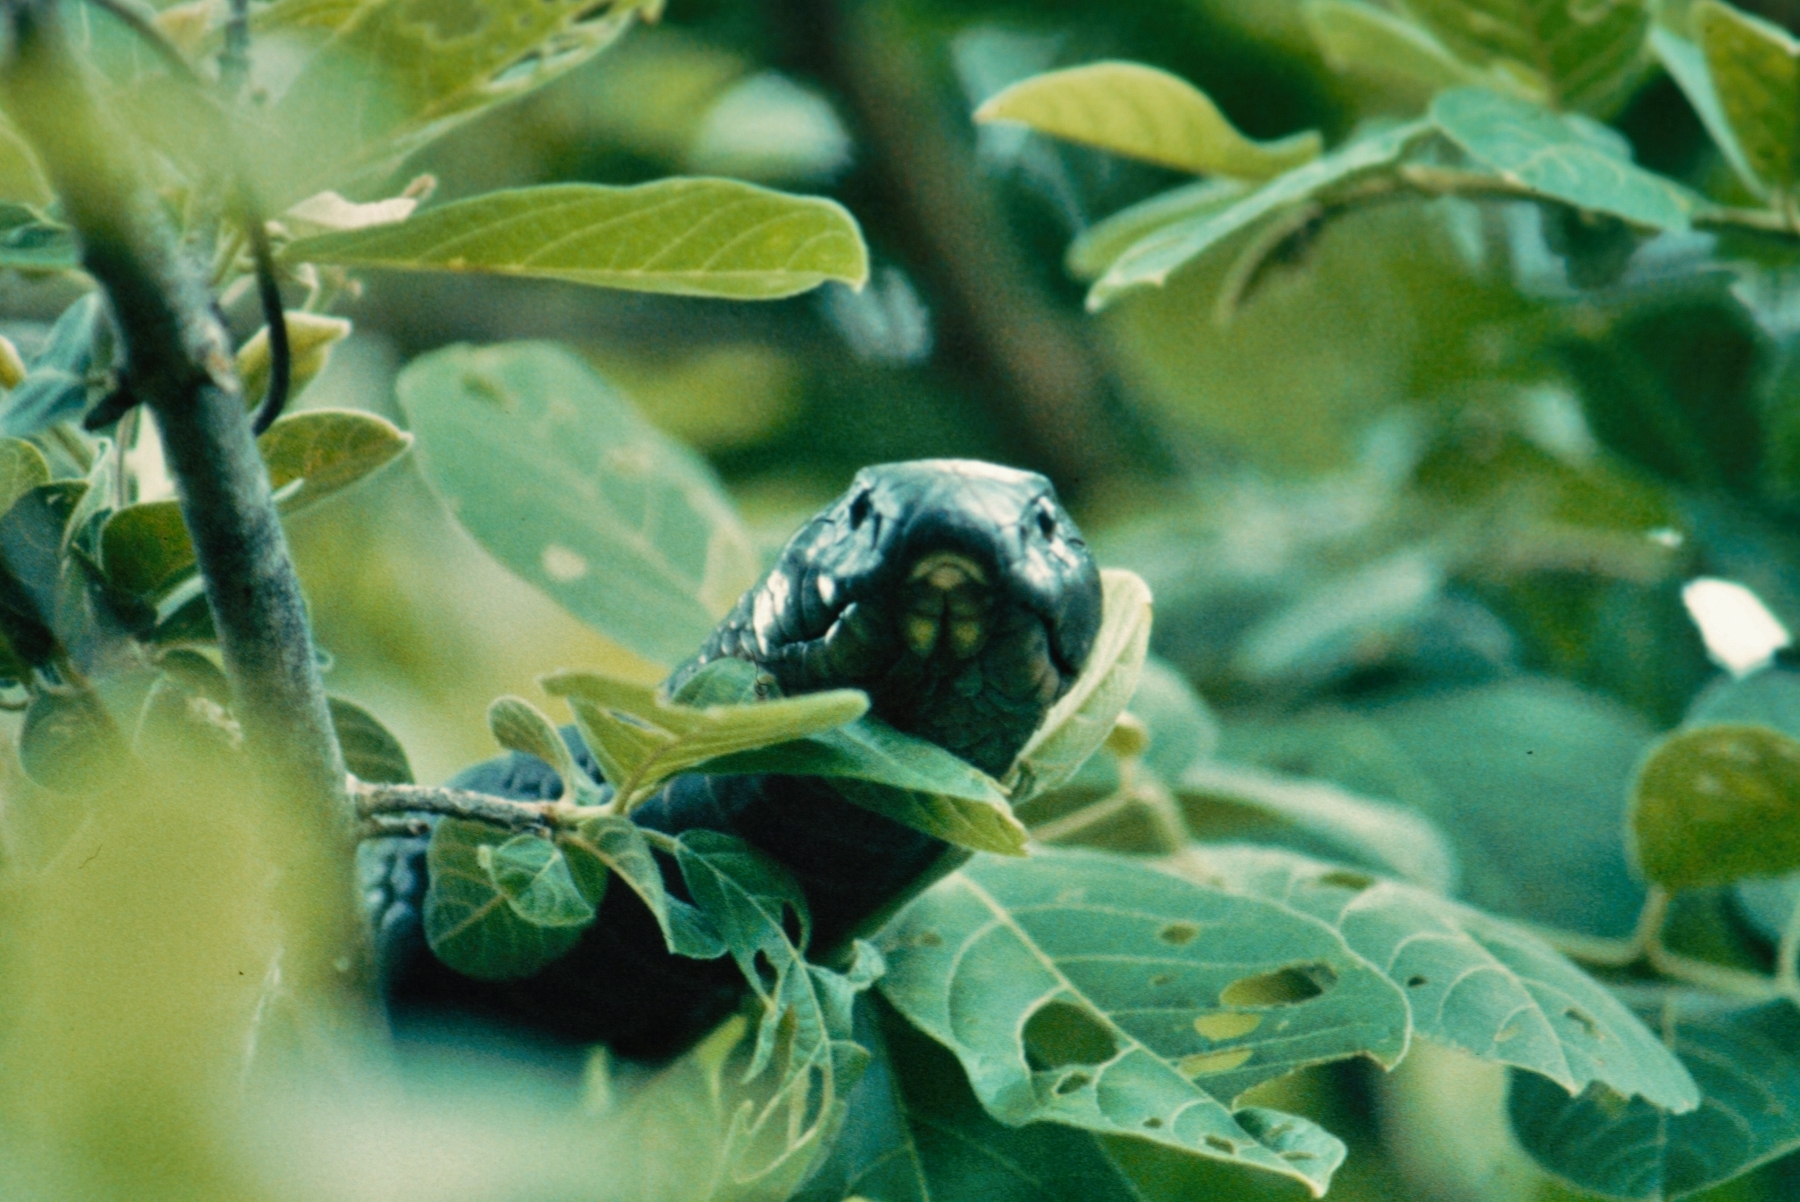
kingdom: Animalia
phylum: Chordata
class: Squamata
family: Elapidae
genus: Naja
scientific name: Naja annulifera
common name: Snouted cobra
